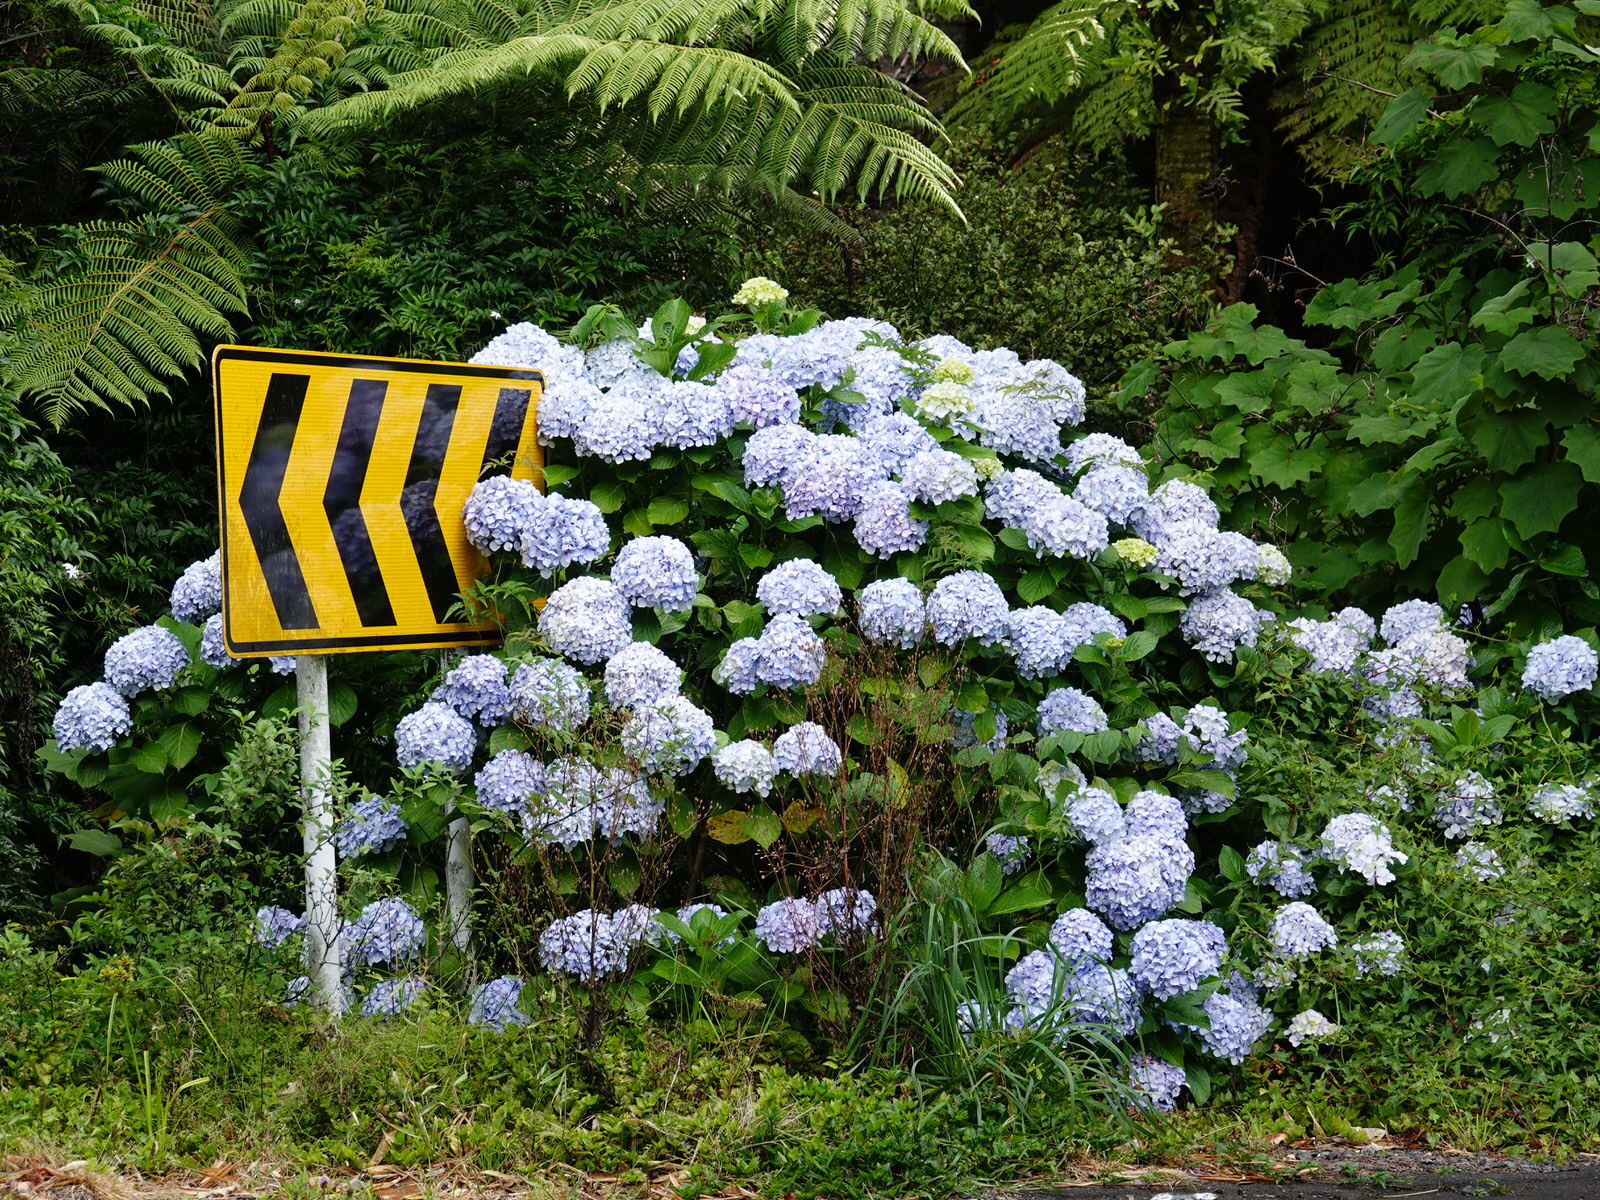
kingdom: Plantae
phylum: Tracheophyta
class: Magnoliopsida
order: Cornales
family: Hydrangeaceae
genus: Hydrangea
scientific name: Hydrangea macrophylla
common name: Hydrangea
